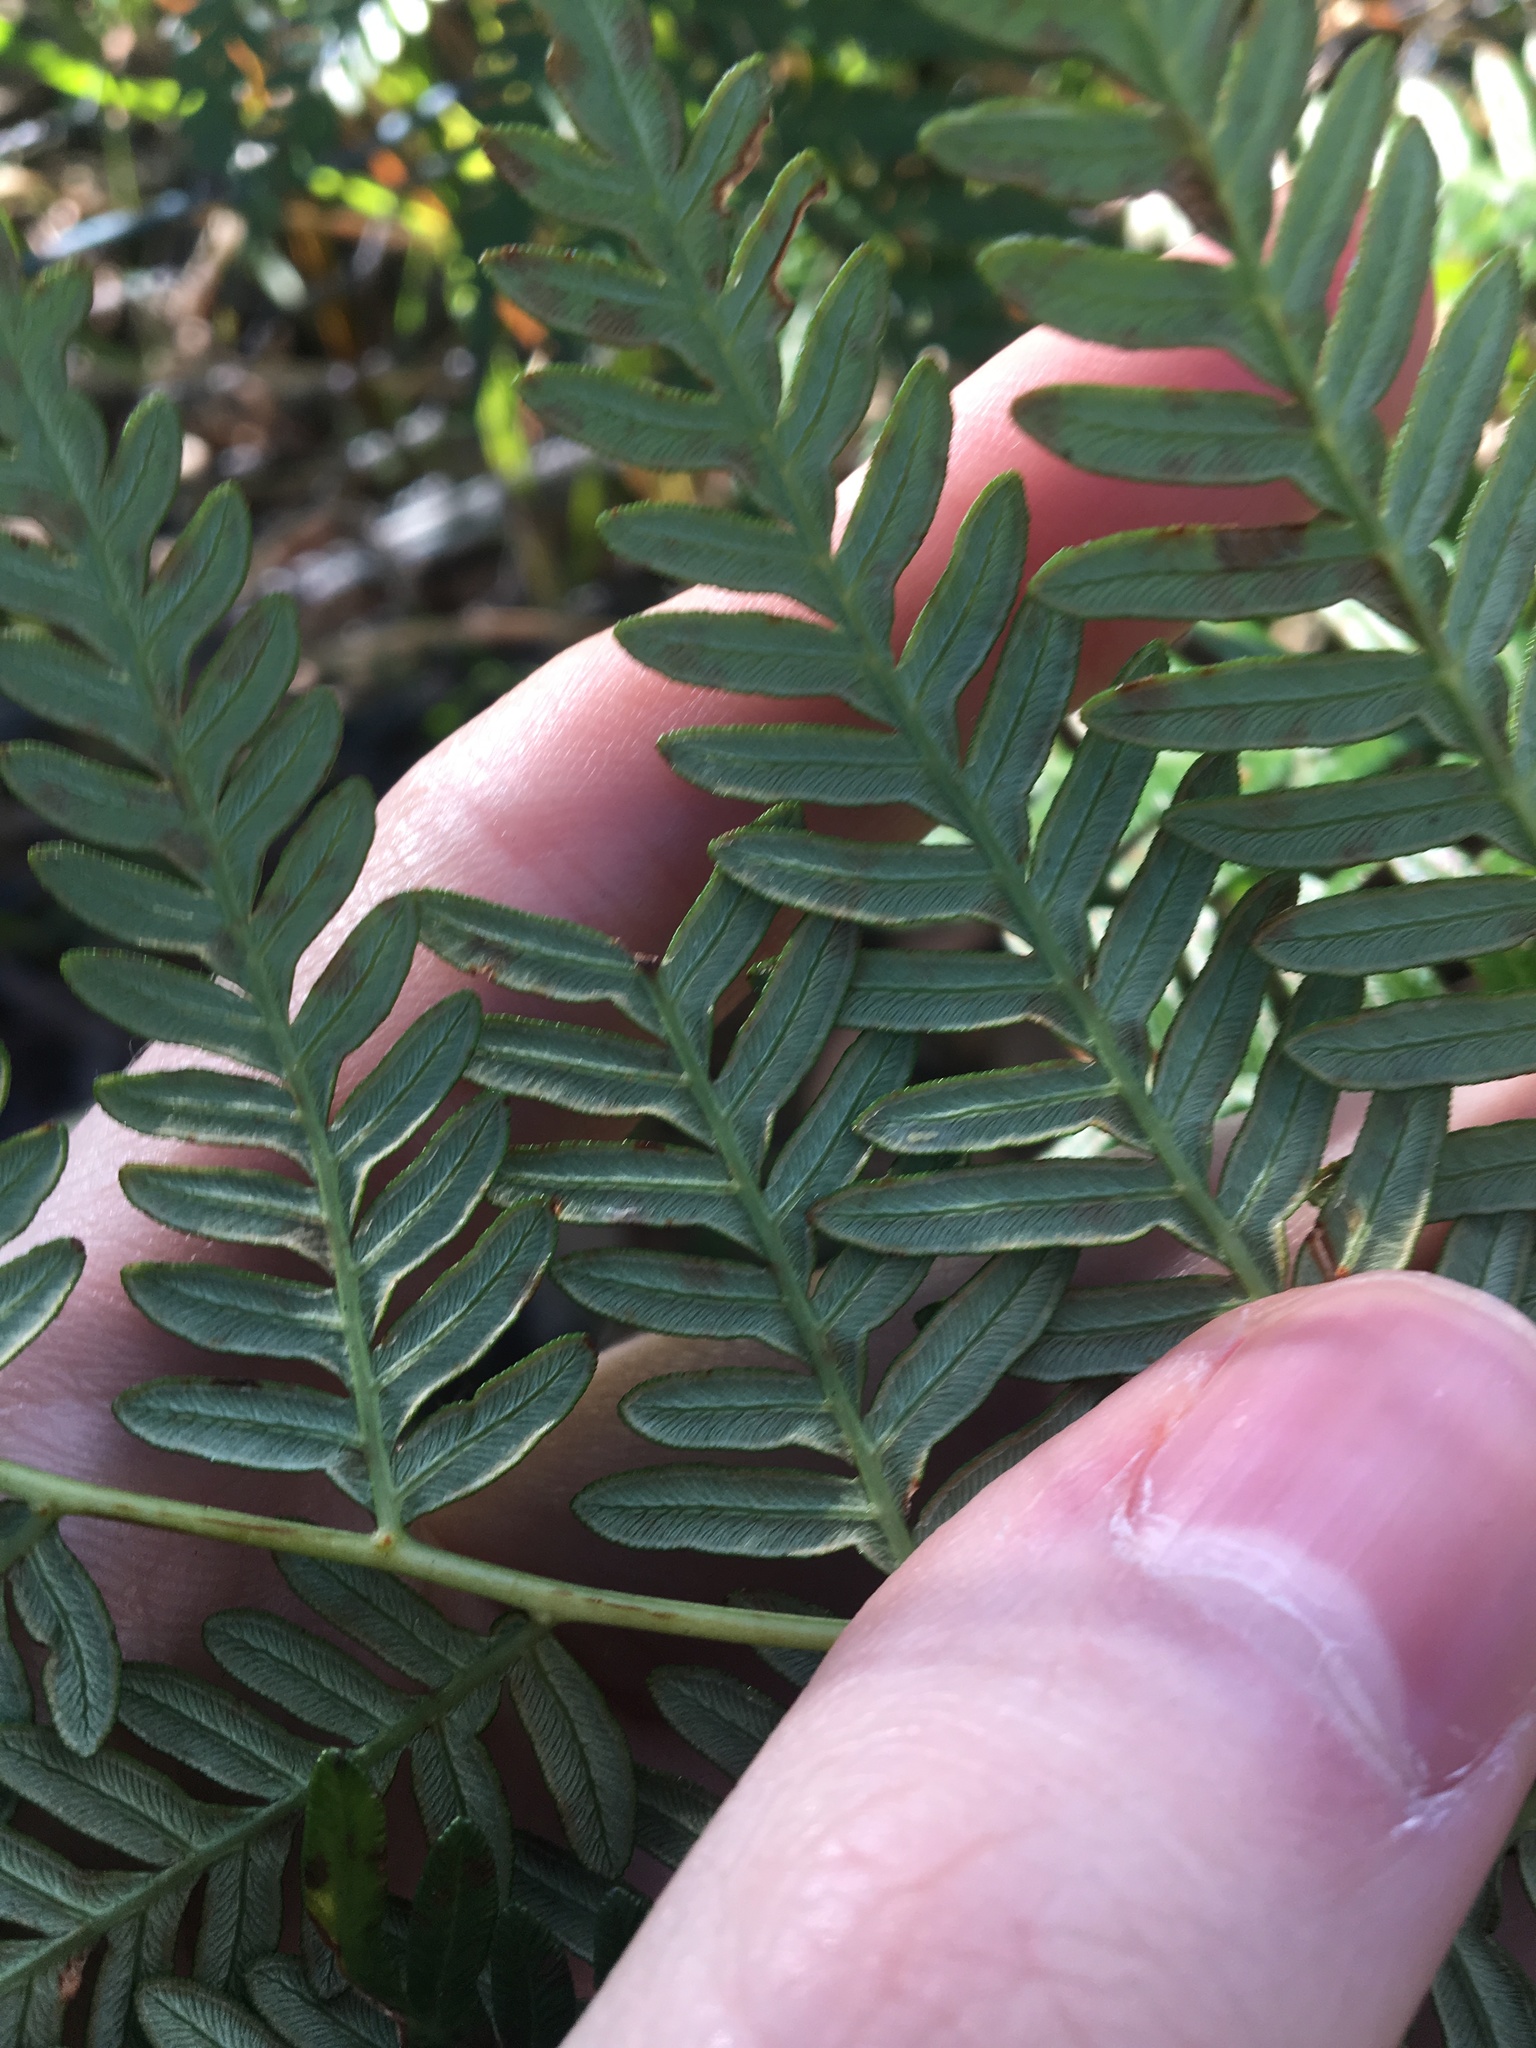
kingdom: Plantae
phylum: Tracheophyta
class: Polypodiopsida
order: Polypodiales
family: Dennstaedtiaceae
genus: Pteridium
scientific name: Pteridium esculentum
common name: Bracken fern
